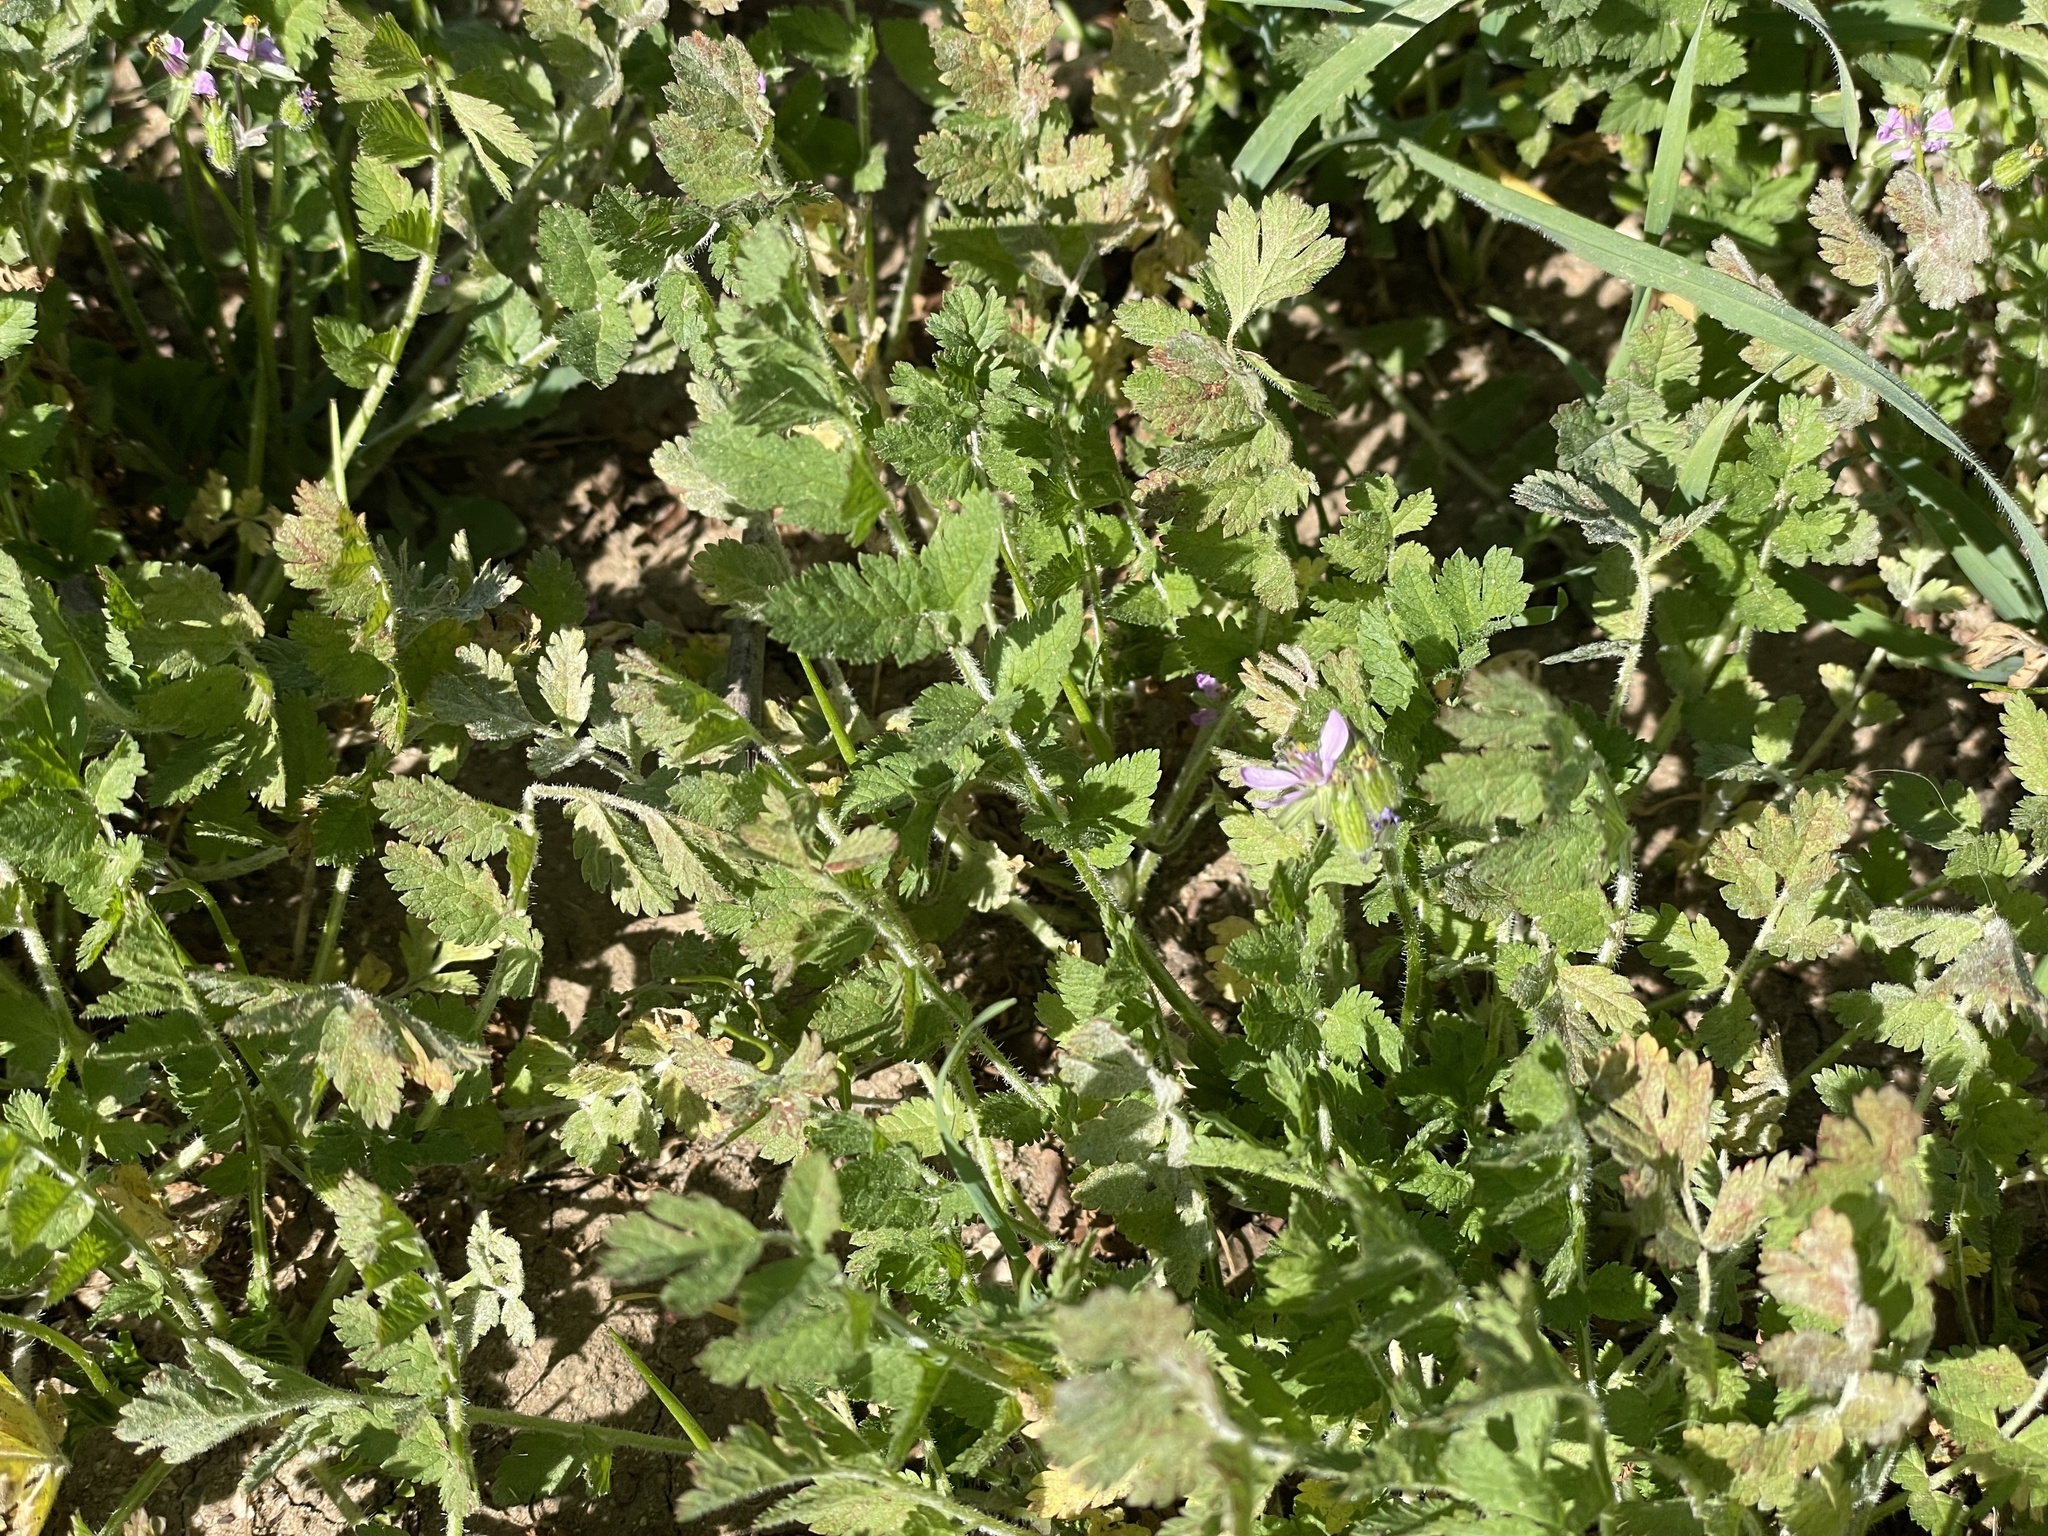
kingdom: Plantae
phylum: Tracheophyta
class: Magnoliopsida
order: Geraniales
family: Geraniaceae
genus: Erodium
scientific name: Erodium moschatum
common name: Musk stork's-bill
